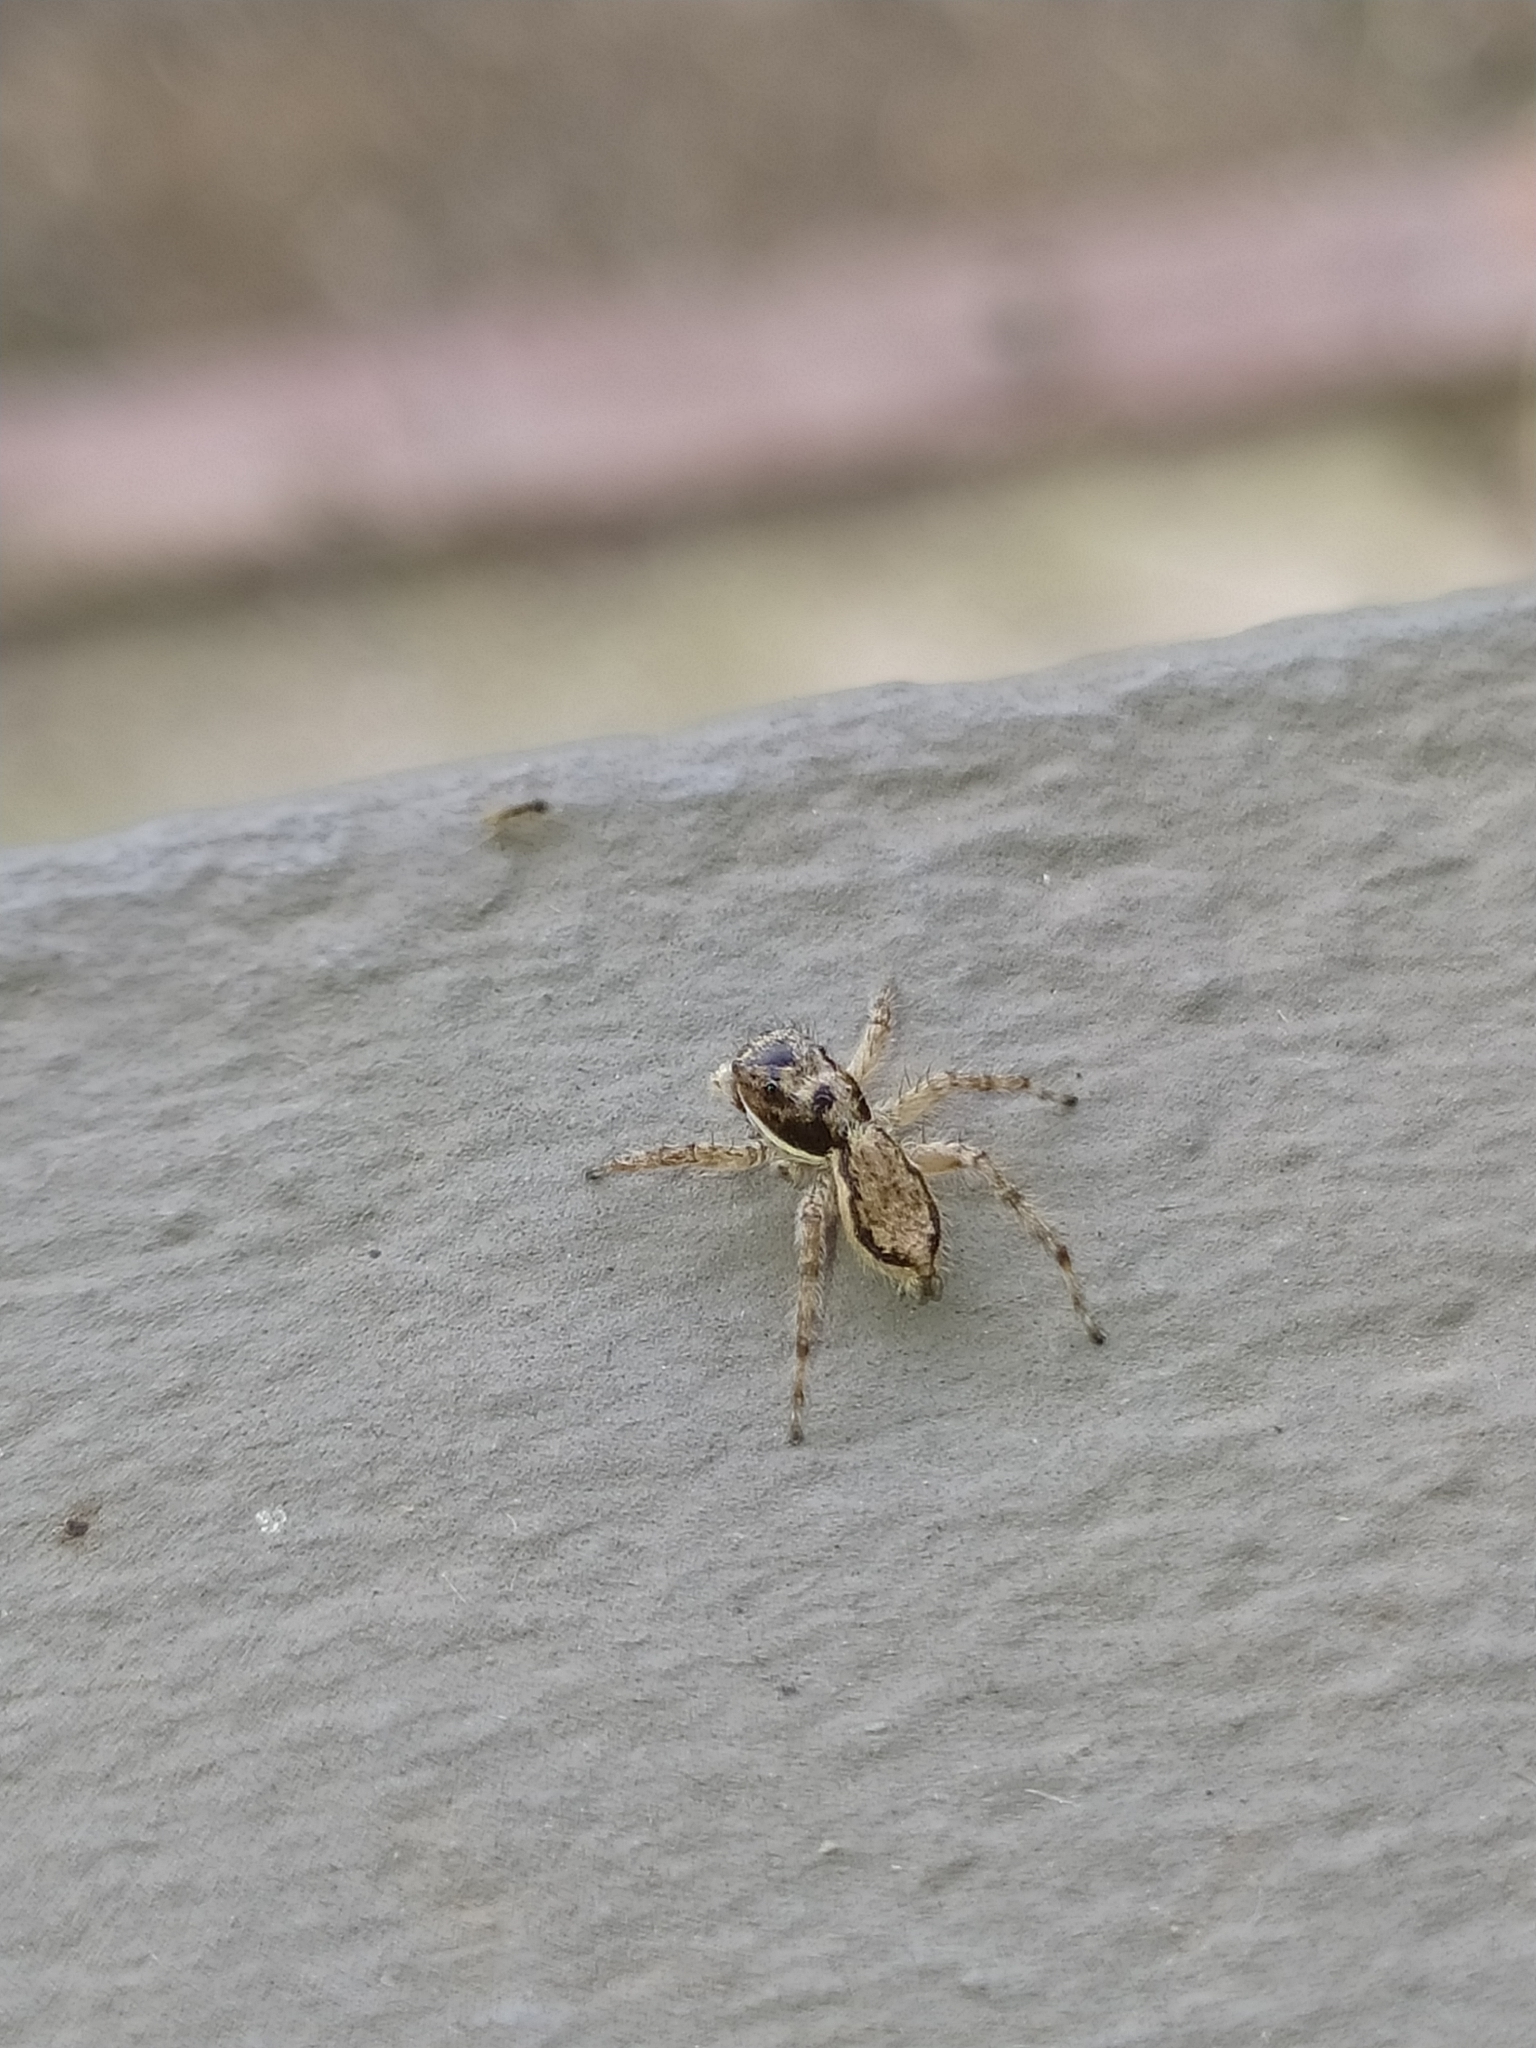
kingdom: Animalia
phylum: Arthropoda
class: Arachnida
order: Araneae
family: Salticidae
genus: Menemerus
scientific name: Menemerus bivittatus
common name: Gray wall jumper
